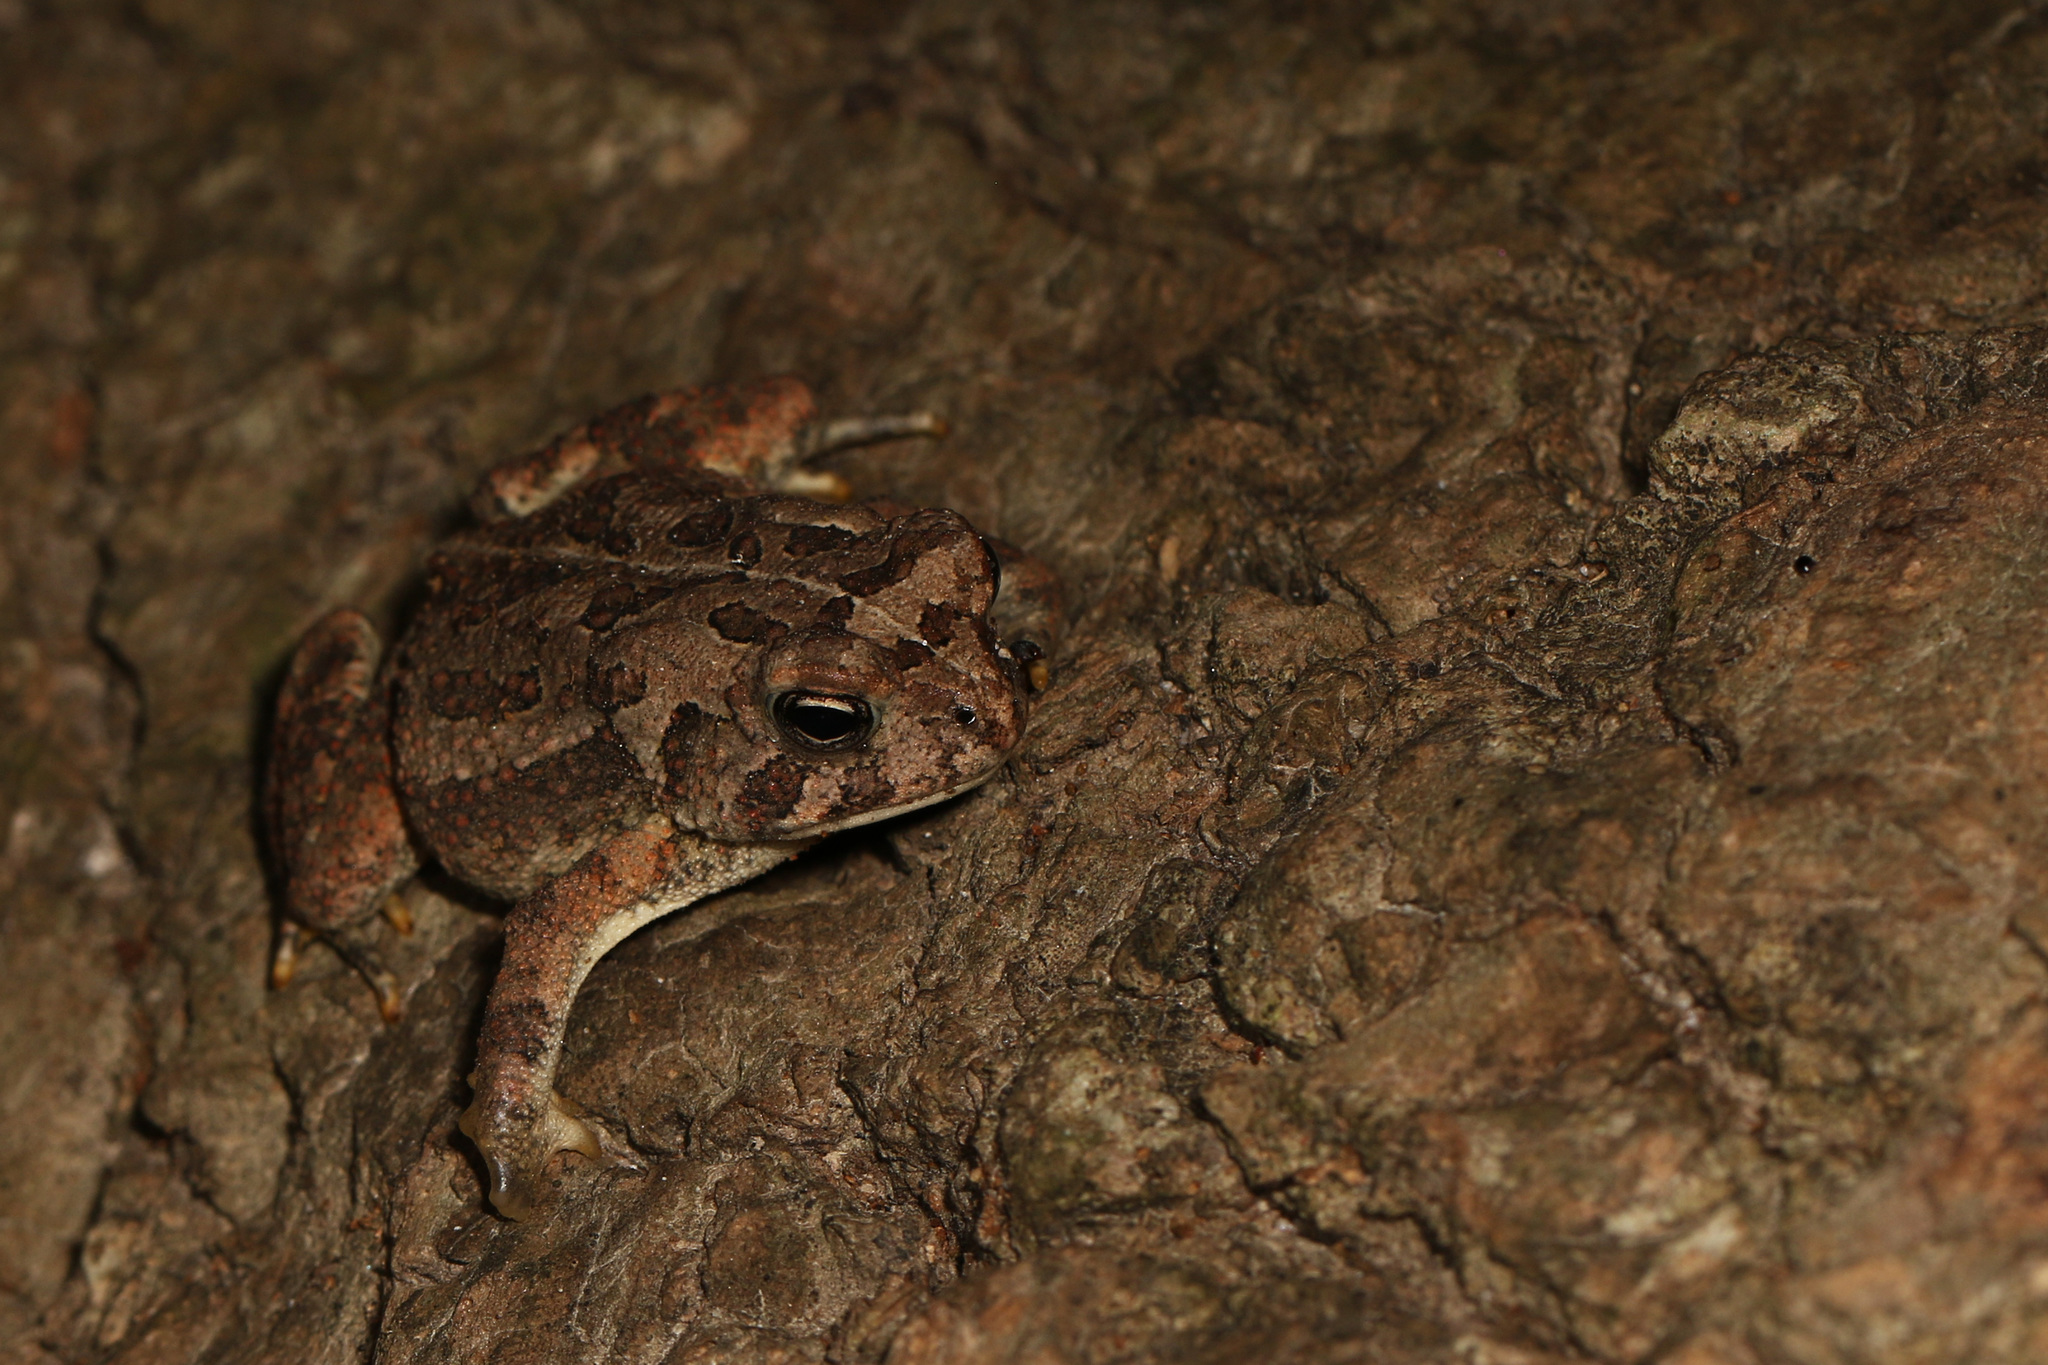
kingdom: Animalia
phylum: Chordata
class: Amphibia
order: Anura
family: Bufonidae
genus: Anaxyrus
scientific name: Anaxyrus fowleri
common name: Fowler's toad
